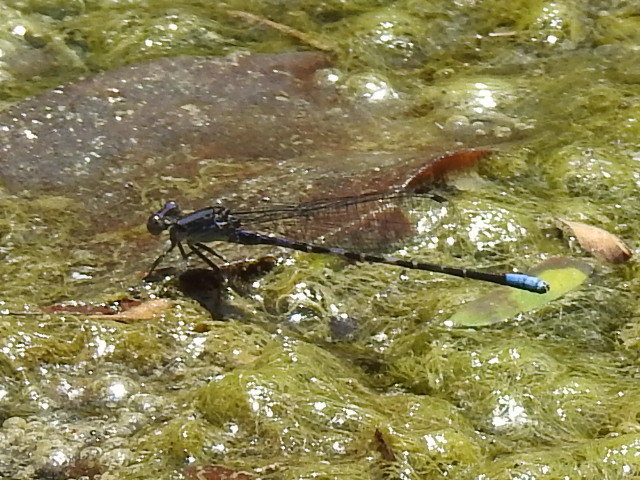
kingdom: Animalia
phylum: Arthropoda
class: Insecta
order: Odonata
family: Coenagrionidae
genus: Argia
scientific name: Argia immunda
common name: Kiowa dancer
